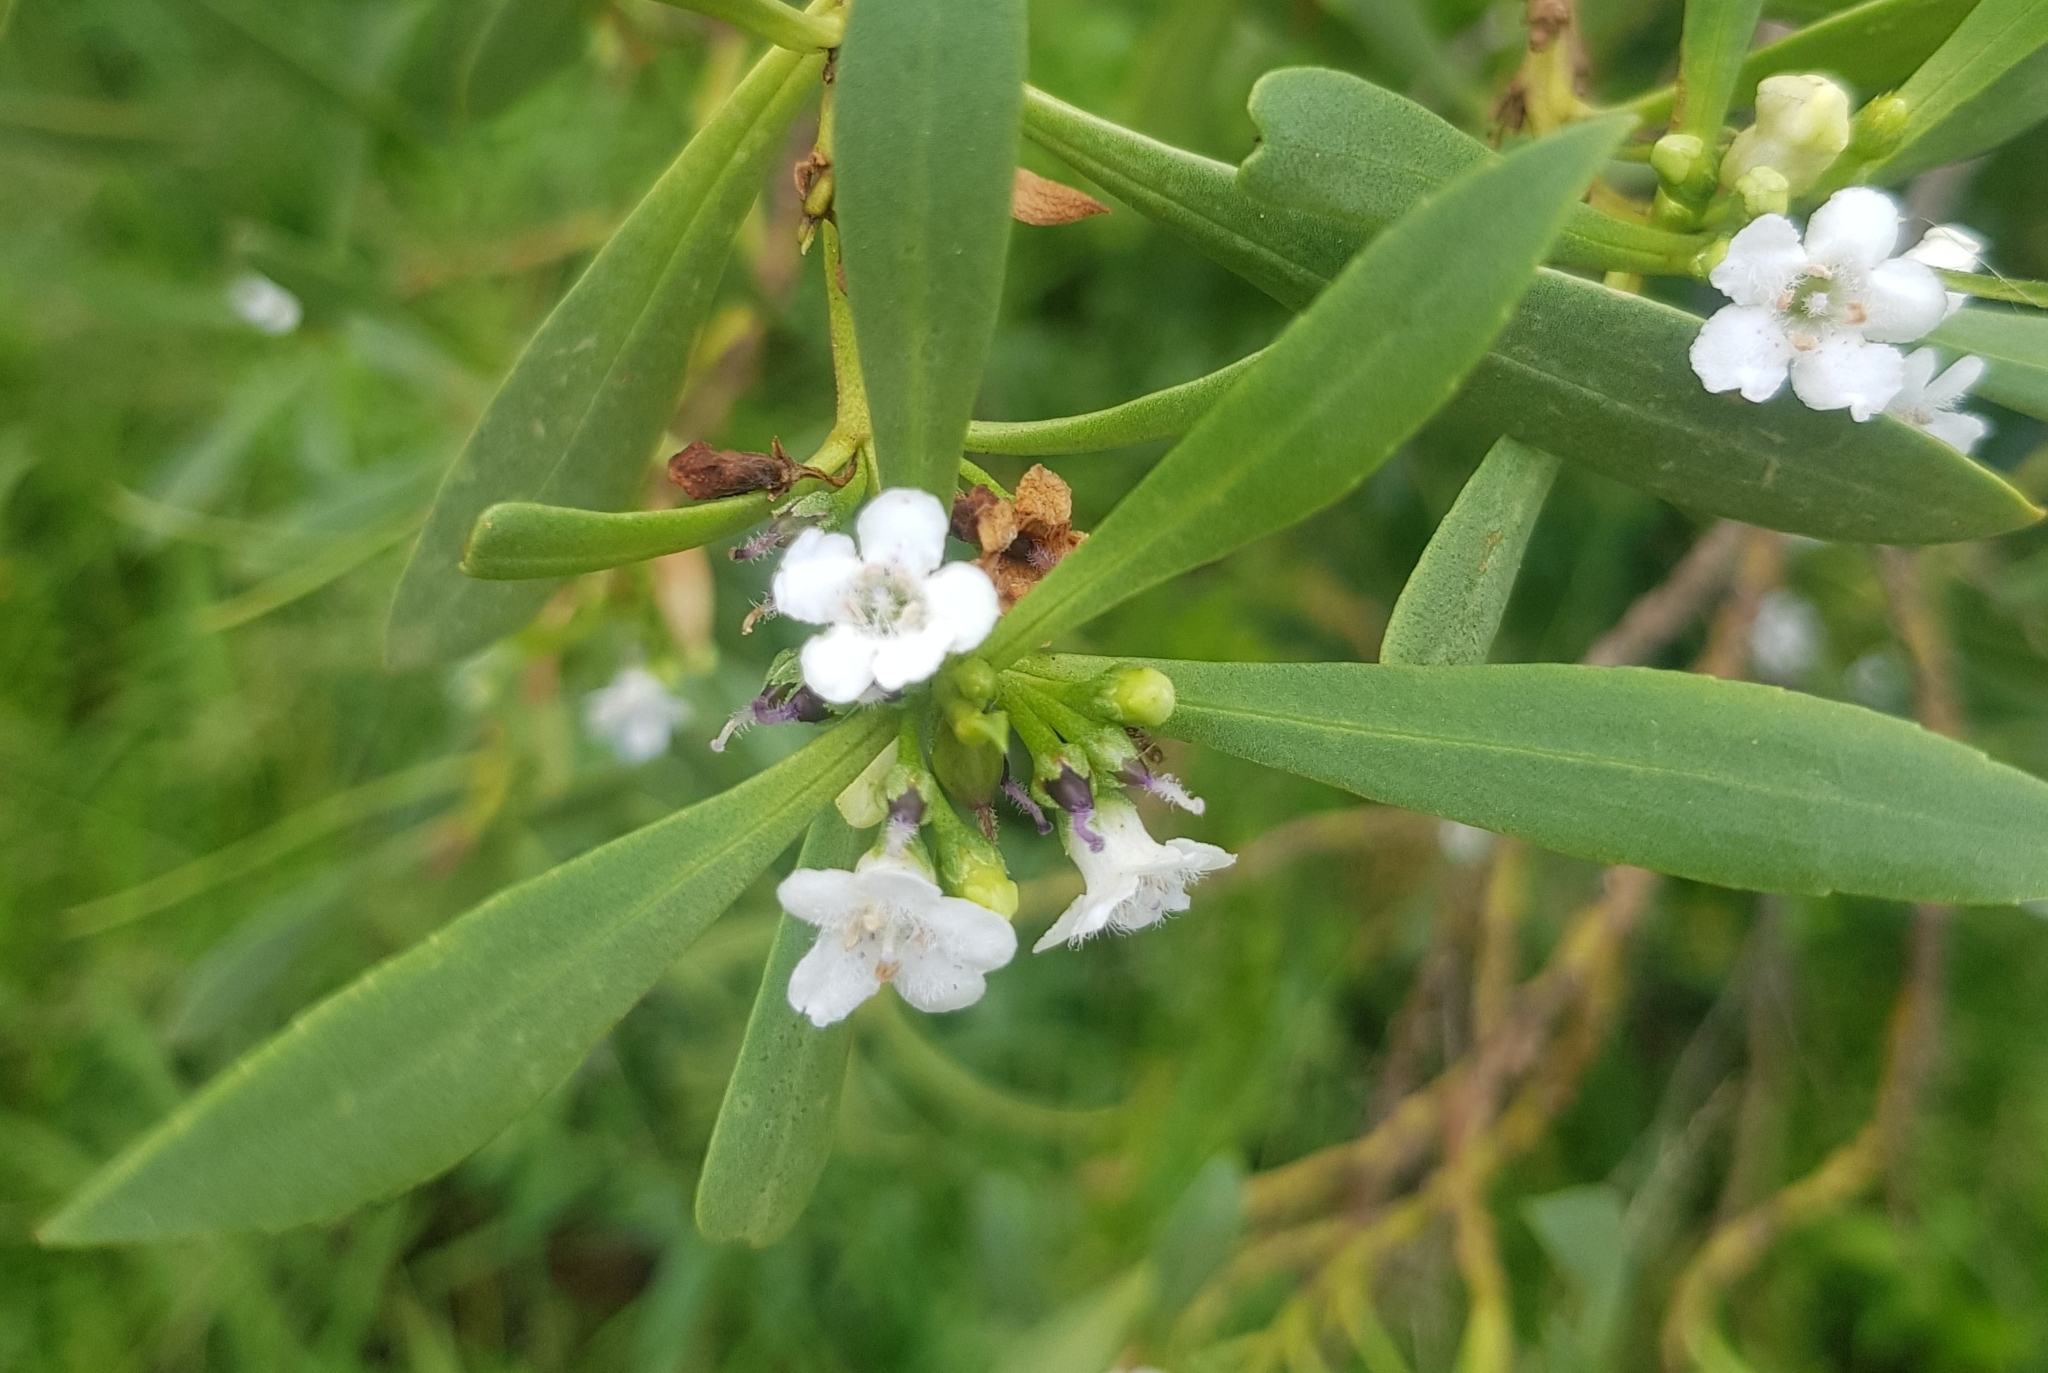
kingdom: Plantae
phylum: Tracheophyta
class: Magnoliopsida
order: Lamiales
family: Scrophulariaceae
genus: Myoporum
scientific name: Myoporum insulare
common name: Common boobialla
